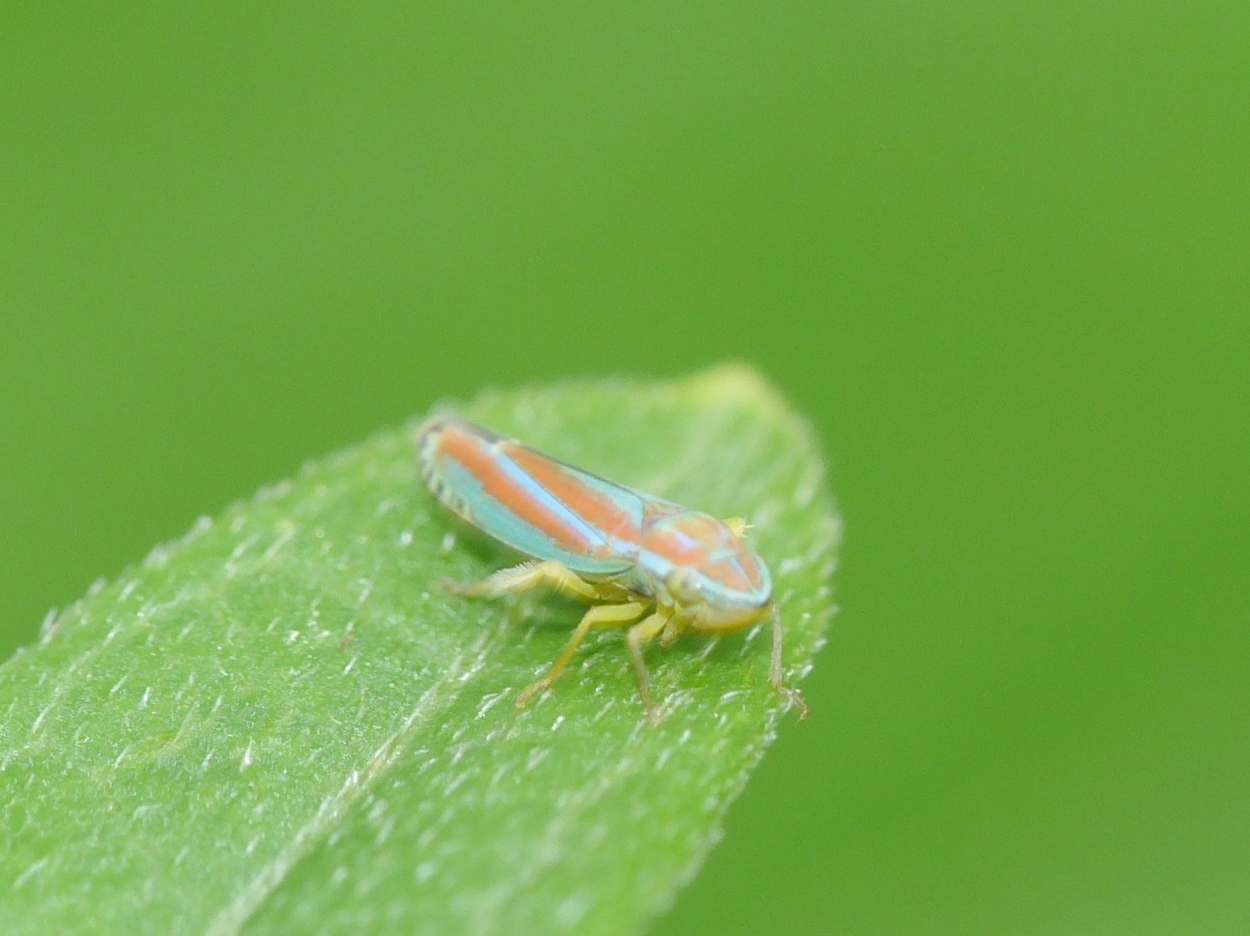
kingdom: Animalia
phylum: Arthropoda
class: Insecta
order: Hemiptera
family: Cicadellidae
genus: Graphocephala
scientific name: Graphocephala versuta
